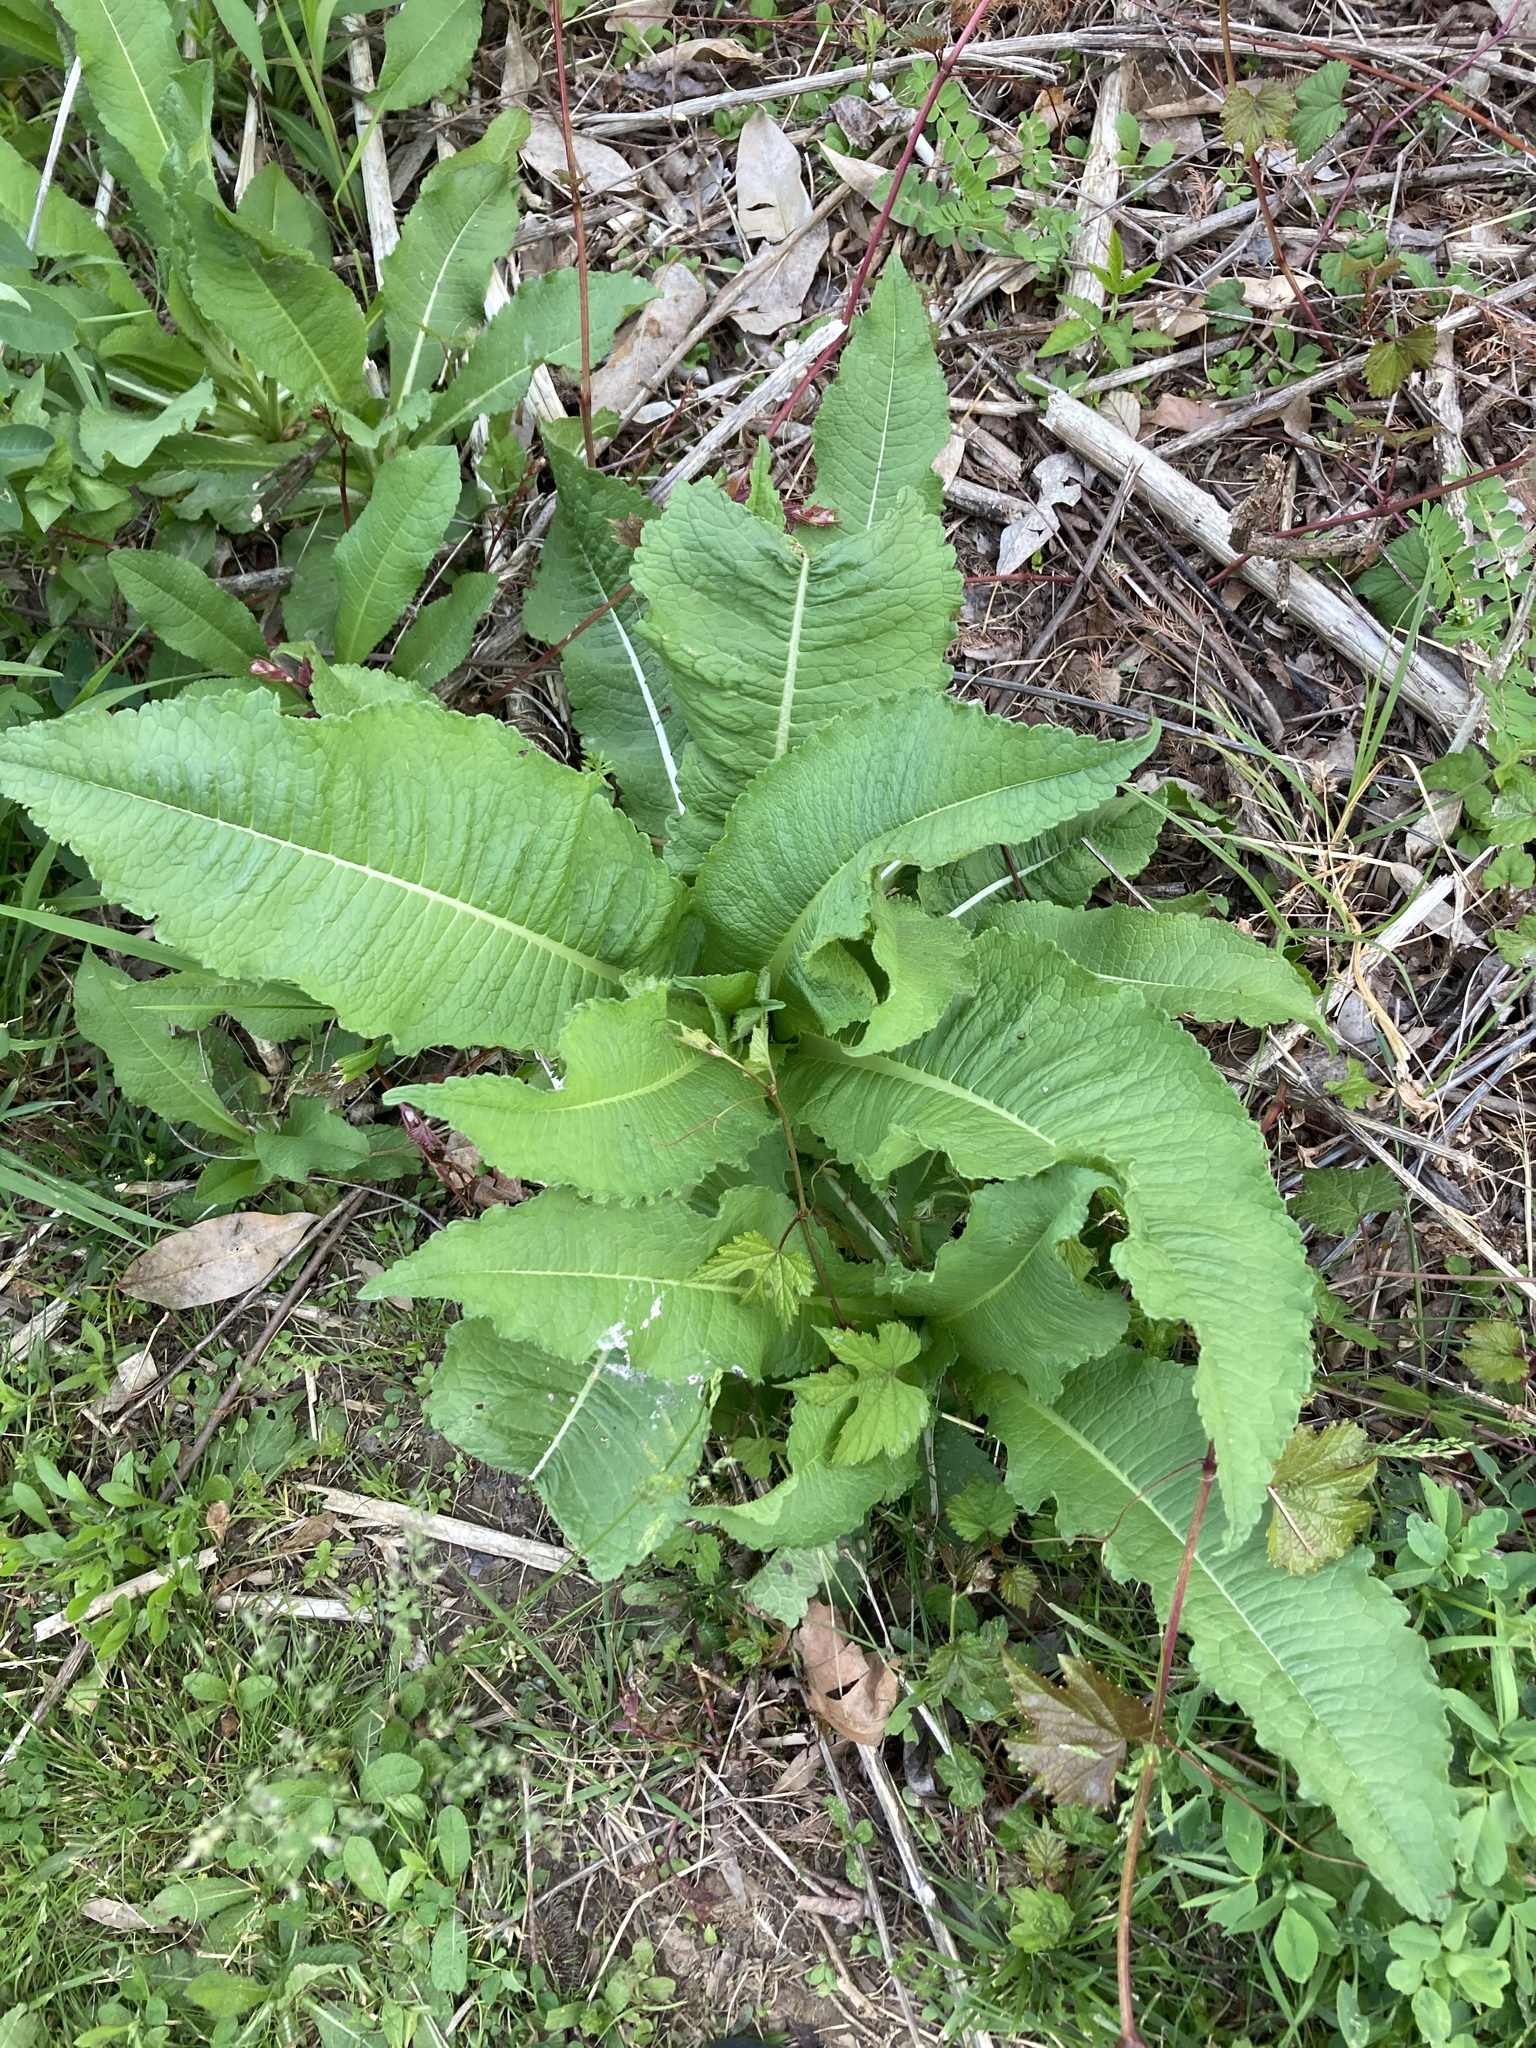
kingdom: Plantae
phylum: Tracheophyta
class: Magnoliopsida
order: Dipsacales
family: Caprifoliaceae
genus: Dipsacus
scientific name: Dipsacus laciniatus
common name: Cut-leaved teasel
